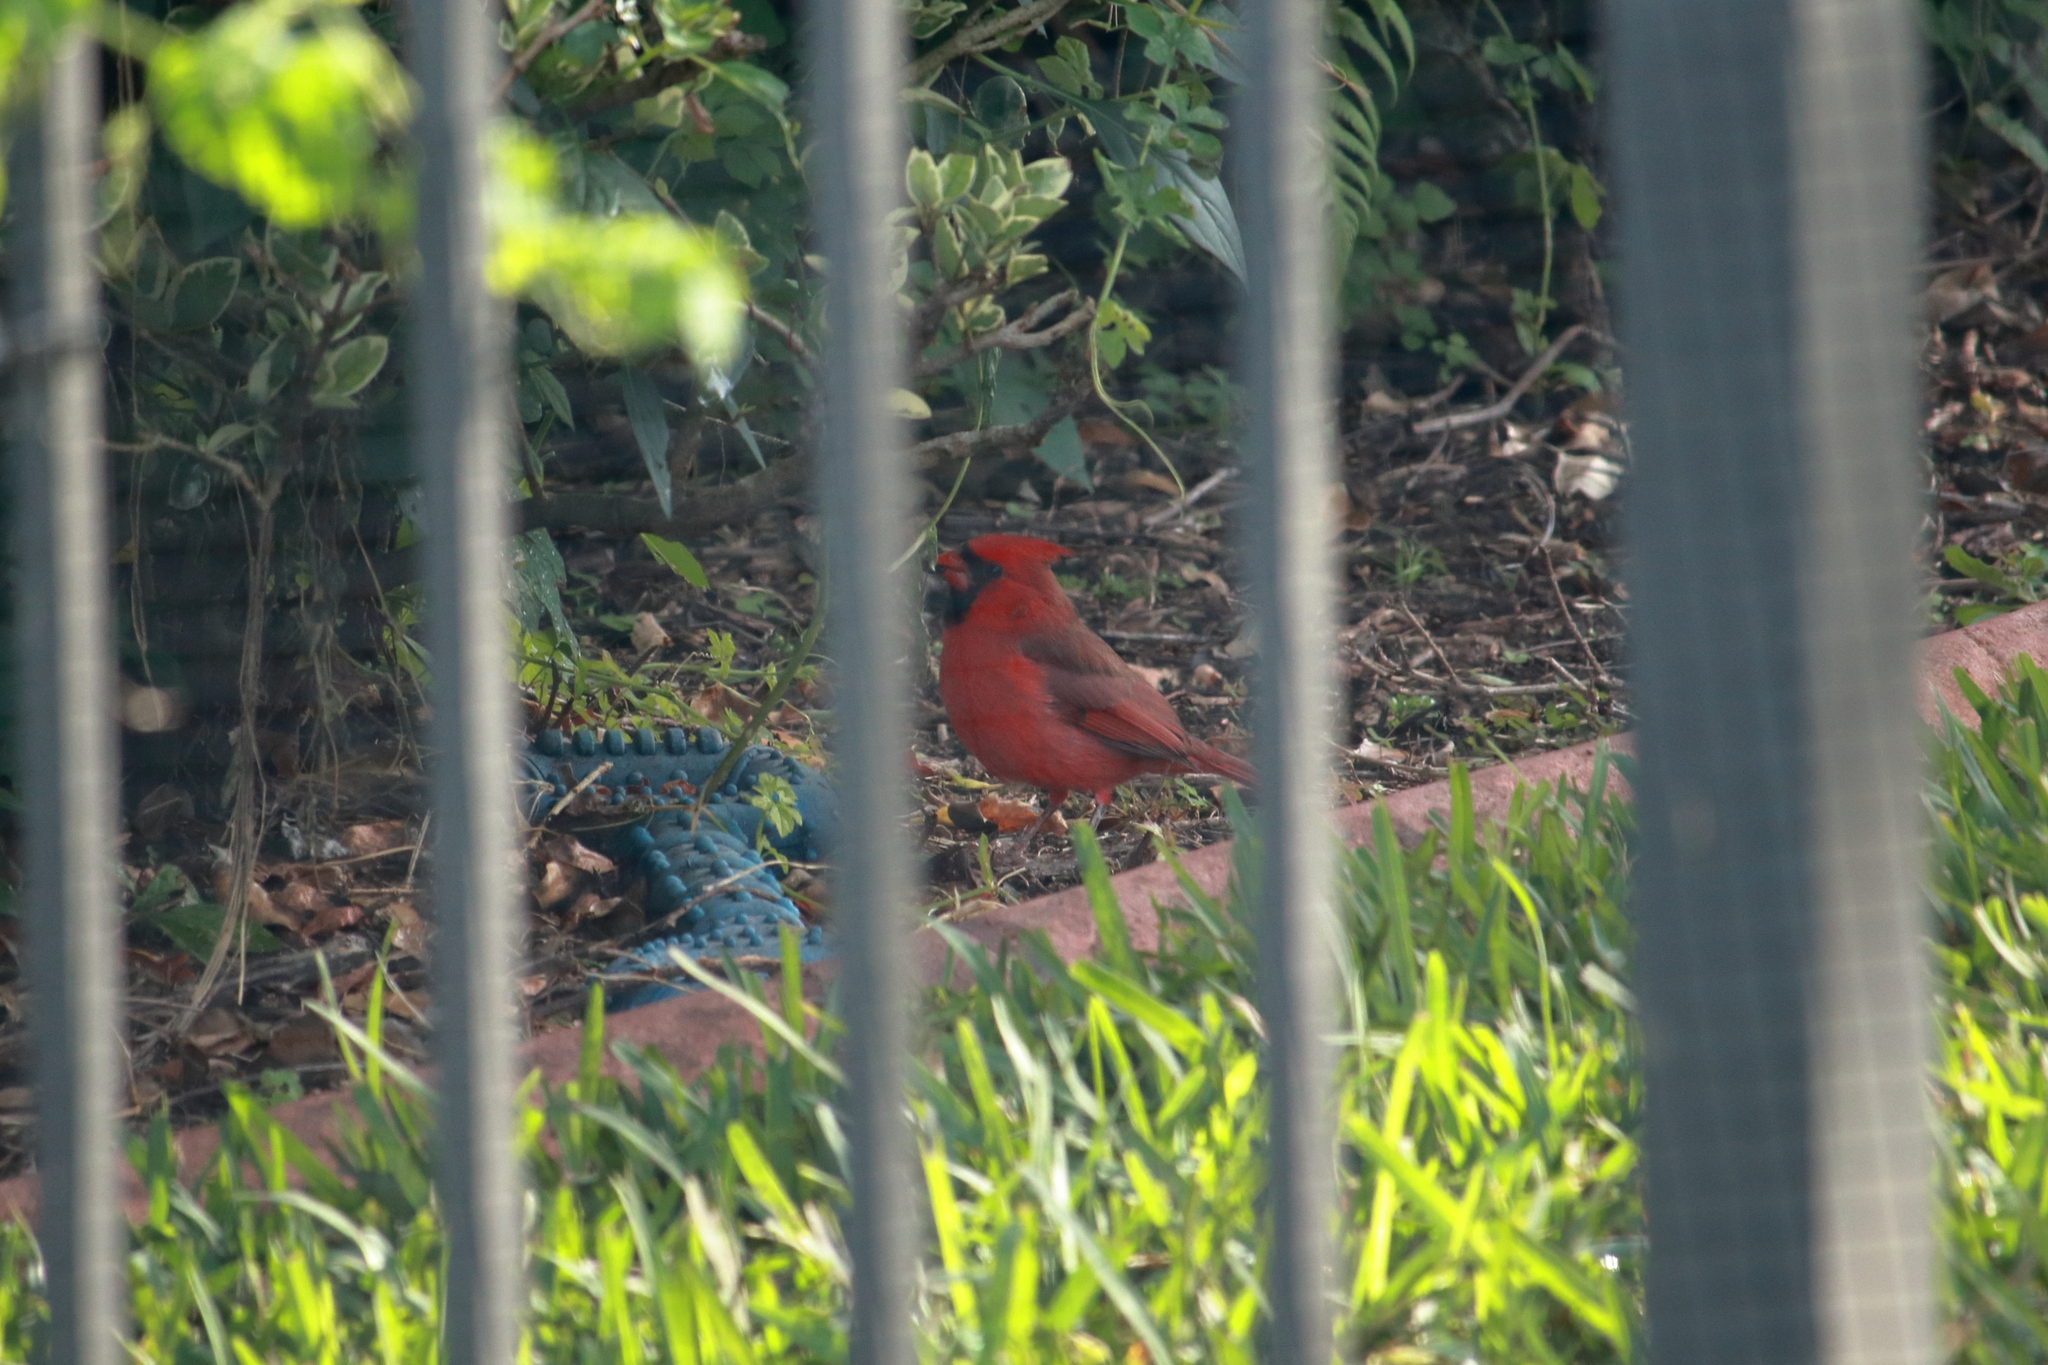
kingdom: Animalia
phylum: Chordata
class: Aves
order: Passeriformes
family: Cardinalidae
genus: Cardinalis
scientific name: Cardinalis cardinalis
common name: Northern cardinal
